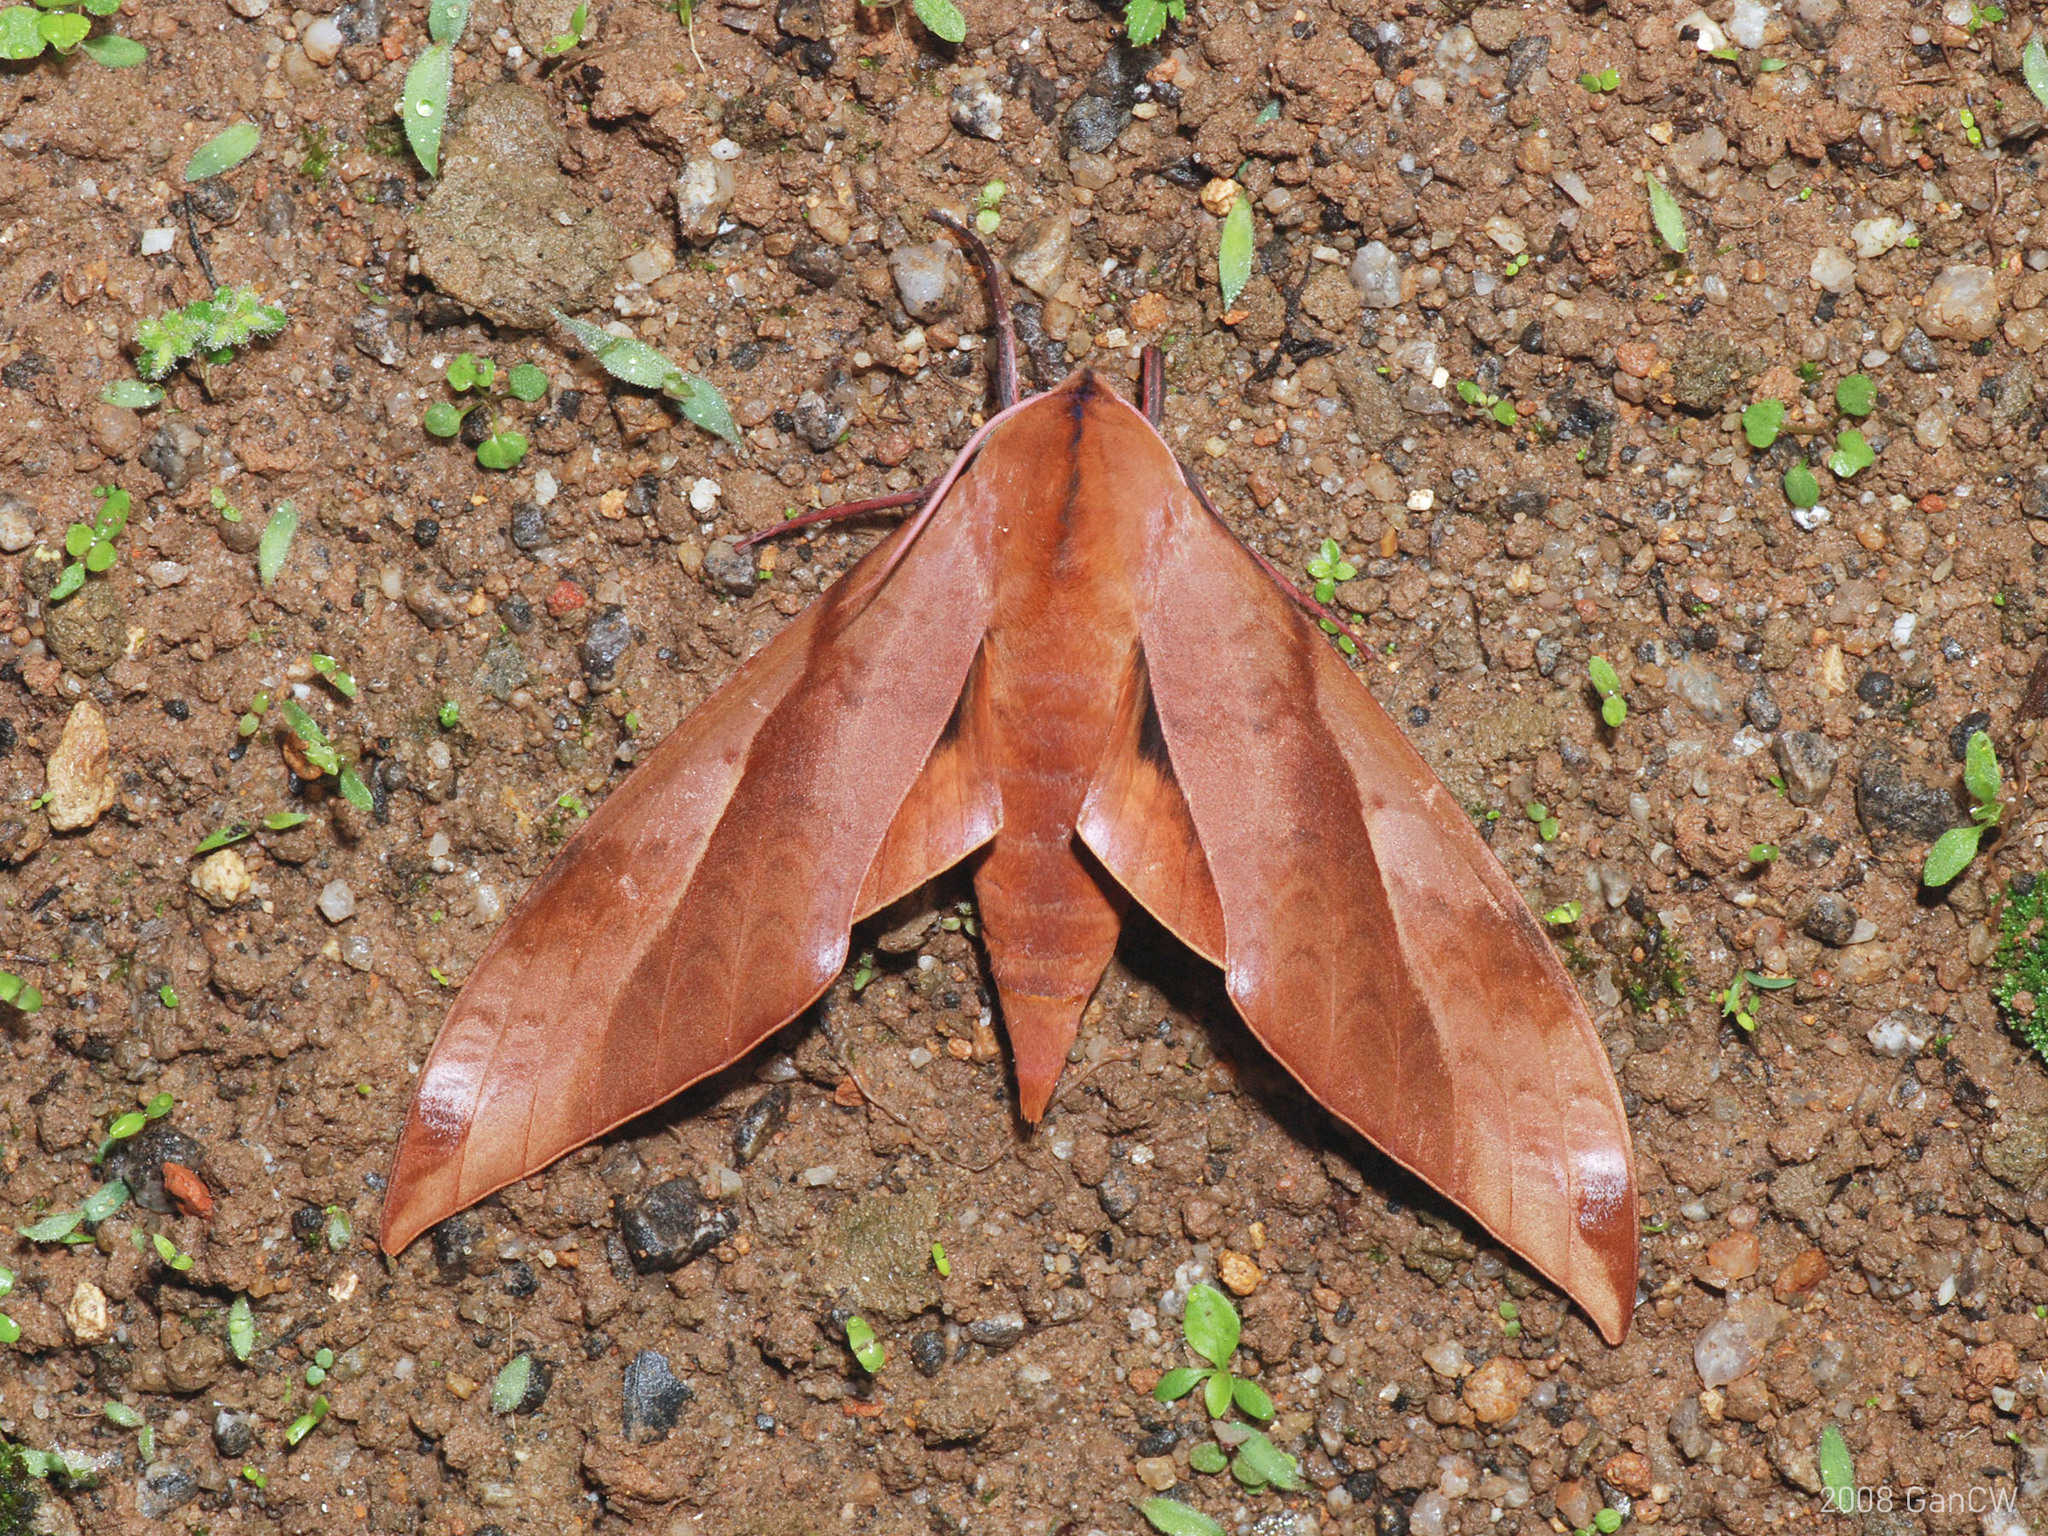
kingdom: Animalia
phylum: Arthropoda
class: Insecta
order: Lepidoptera
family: Sphingidae
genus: Clanis
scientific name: Clanis undulosa
